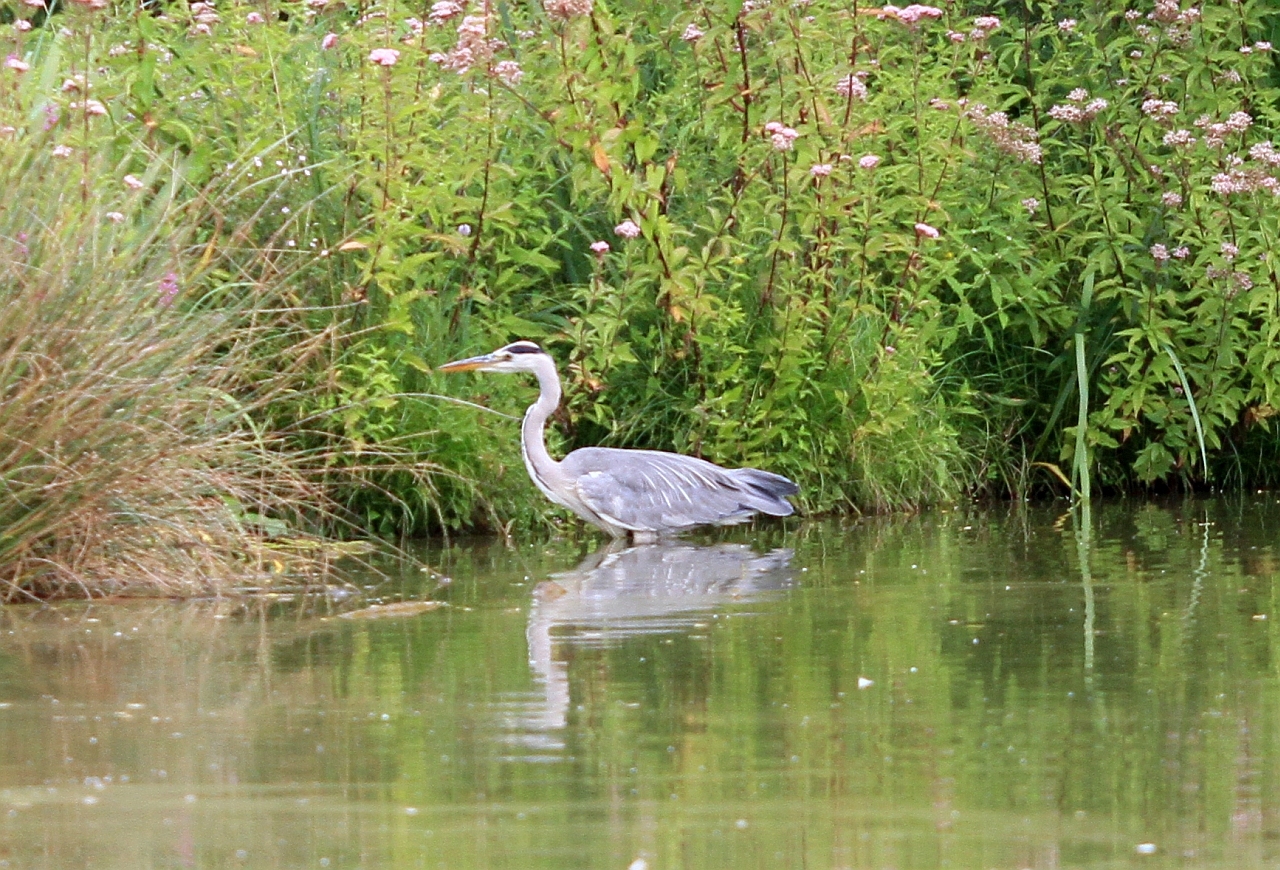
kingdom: Animalia
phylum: Chordata
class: Aves
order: Pelecaniformes
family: Ardeidae
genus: Ardea
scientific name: Ardea cinerea
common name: Grey heron
